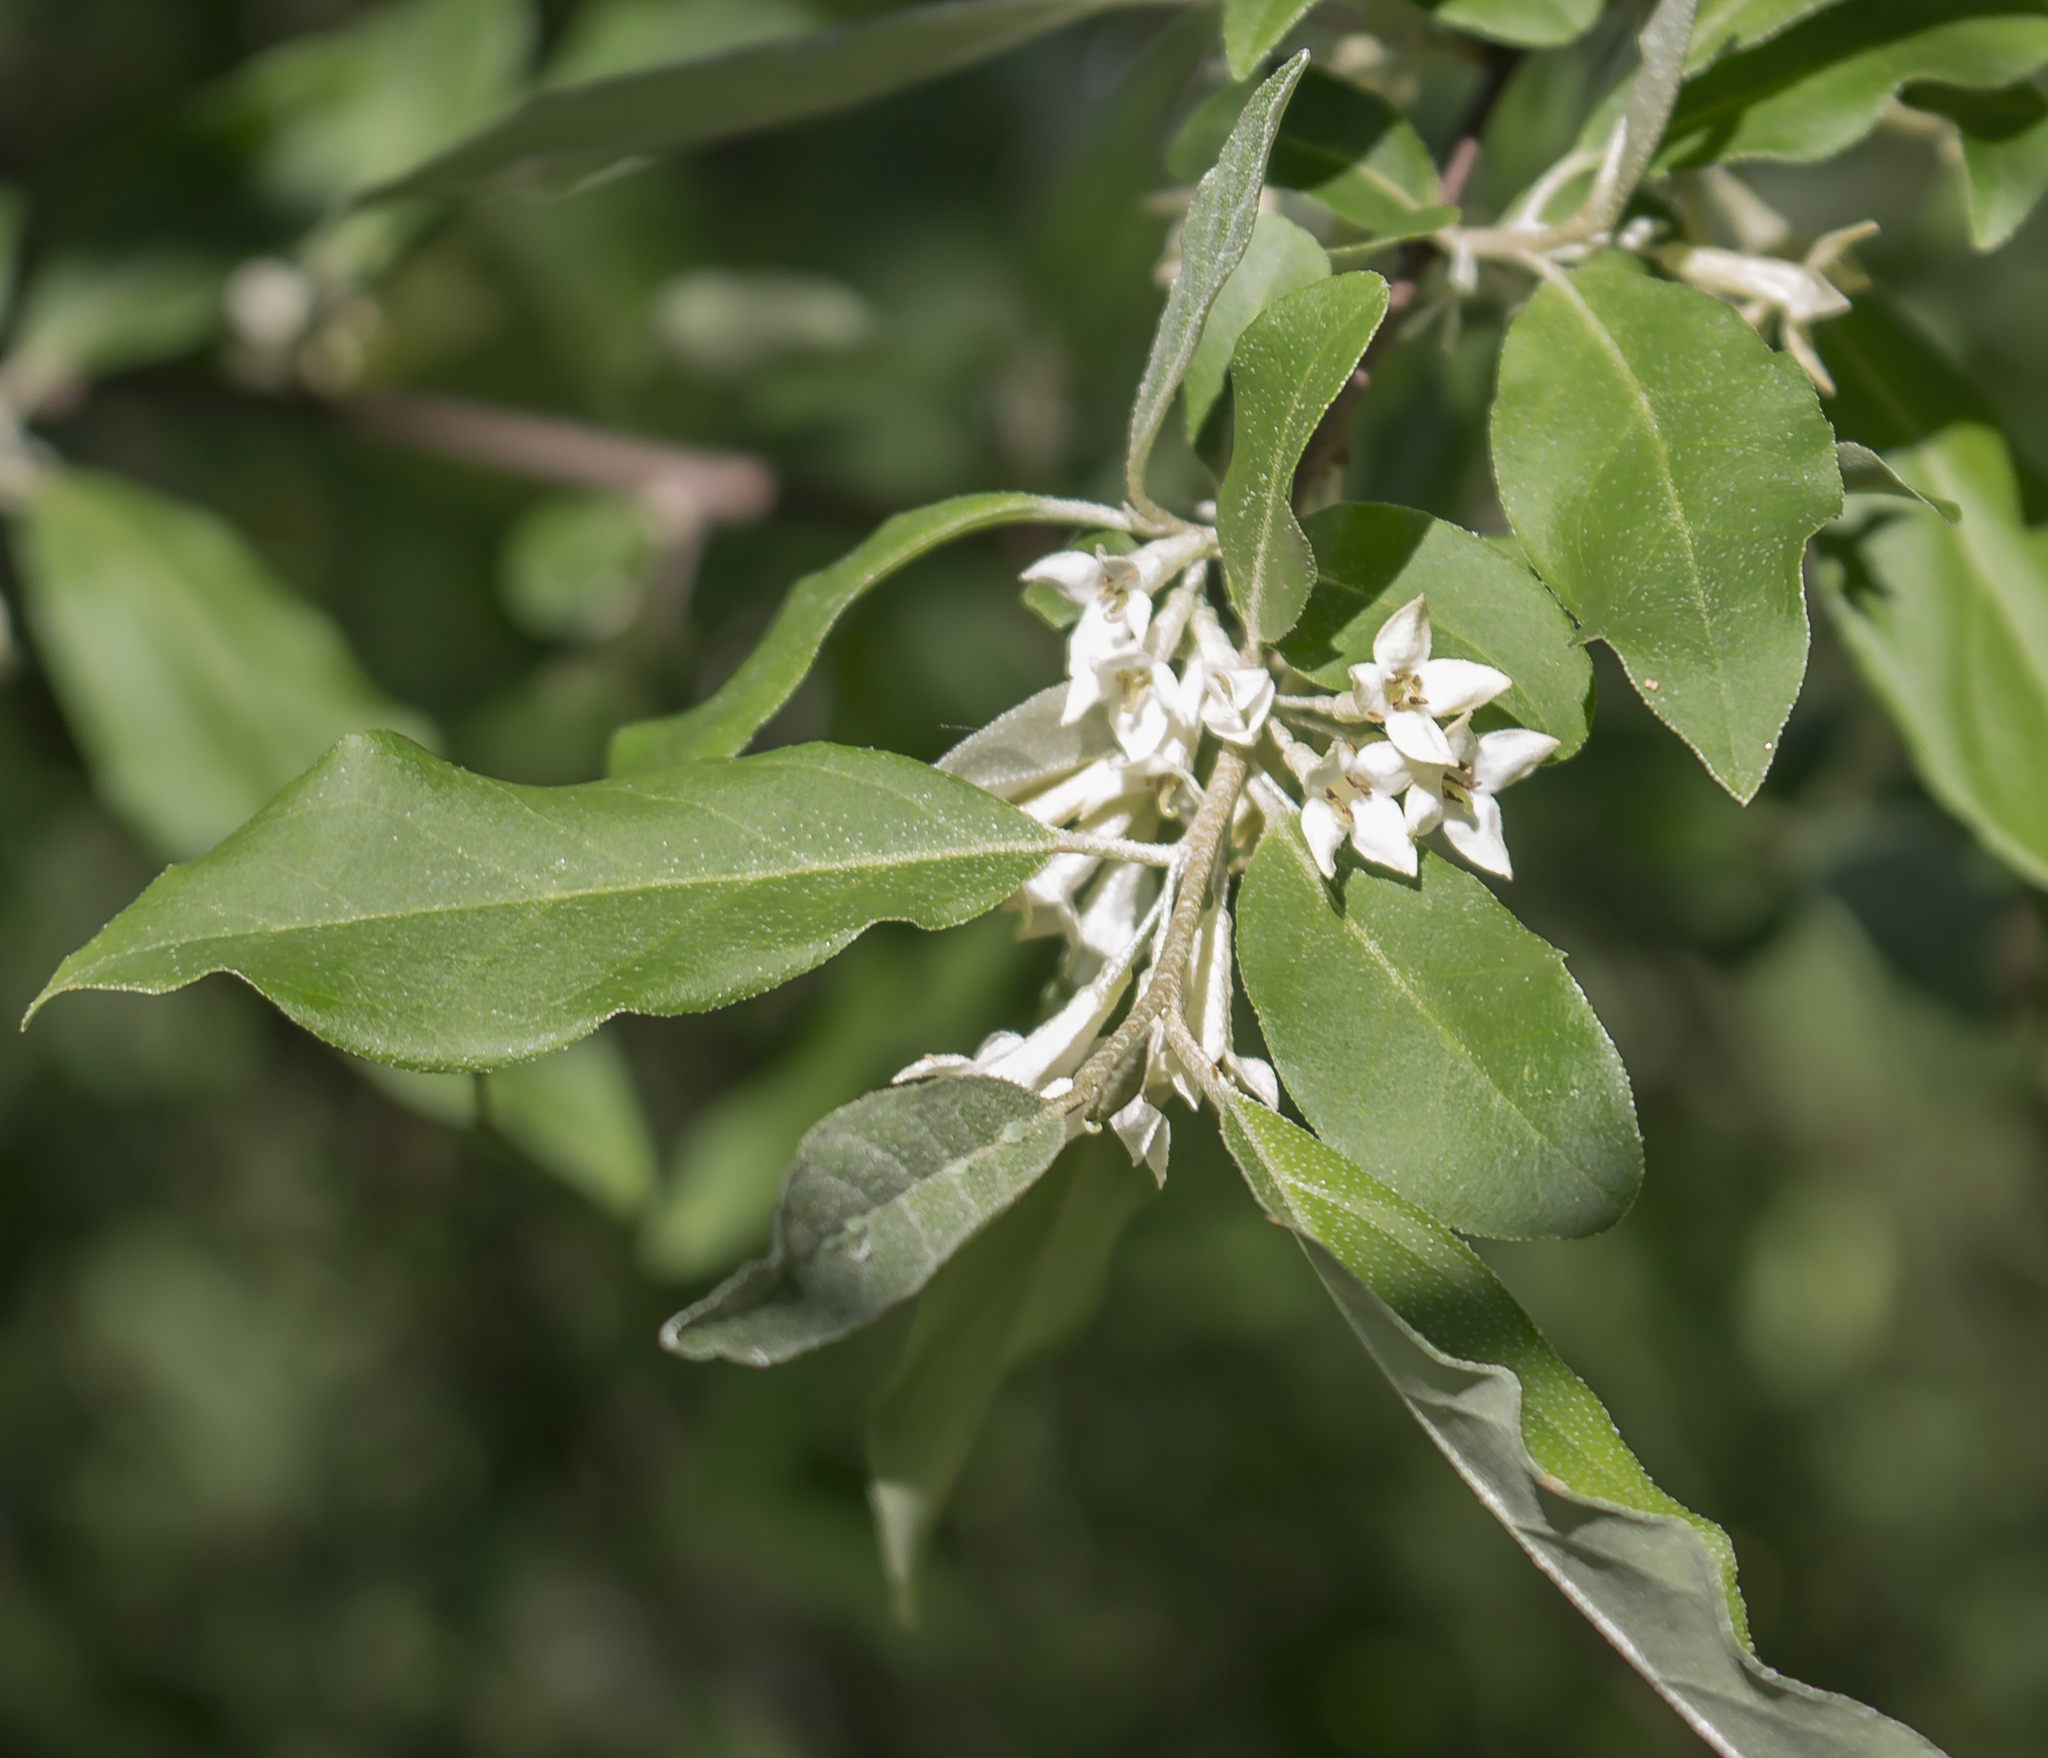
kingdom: Plantae
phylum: Tracheophyta
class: Magnoliopsida
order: Rosales
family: Elaeagnaceae
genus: Elaeagnus
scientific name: Elaeagnus umbellata
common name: Autumn olive
